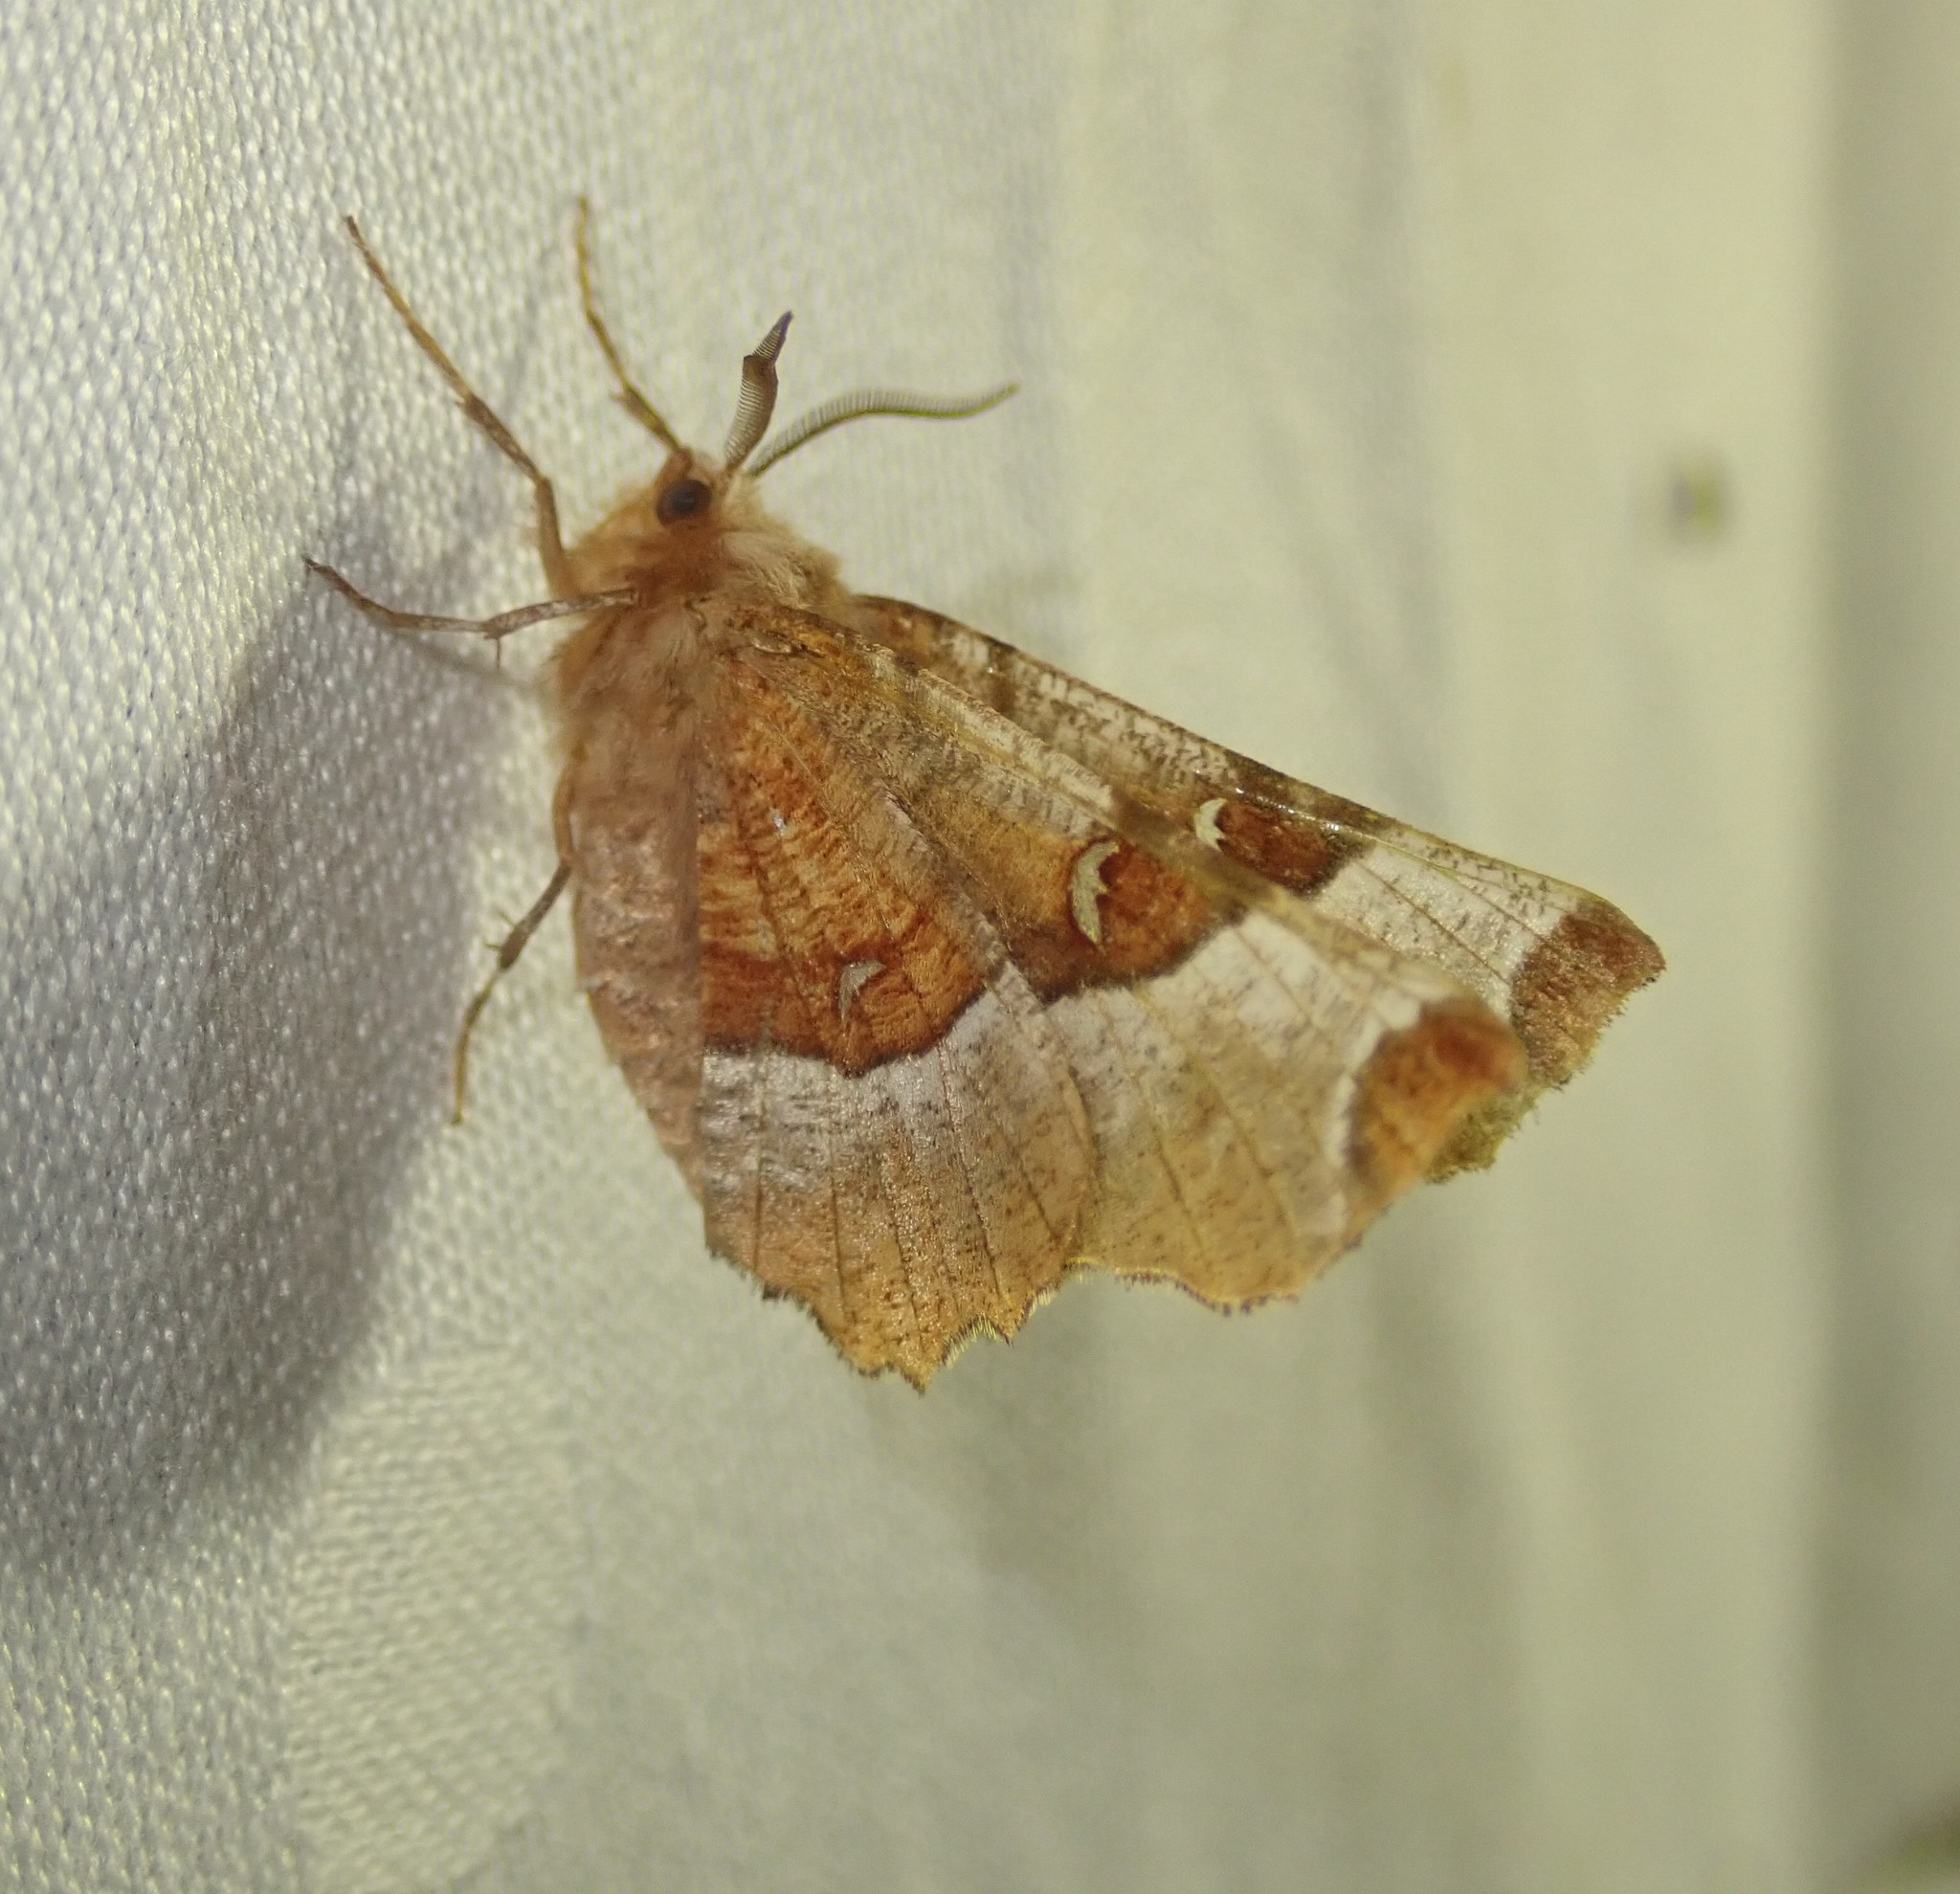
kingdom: Animalia
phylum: Arthropoda
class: Insecta
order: Lepidoptera
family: Geometridae
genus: Selenia
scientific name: Selenia tetralunaria
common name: Purple thorn
